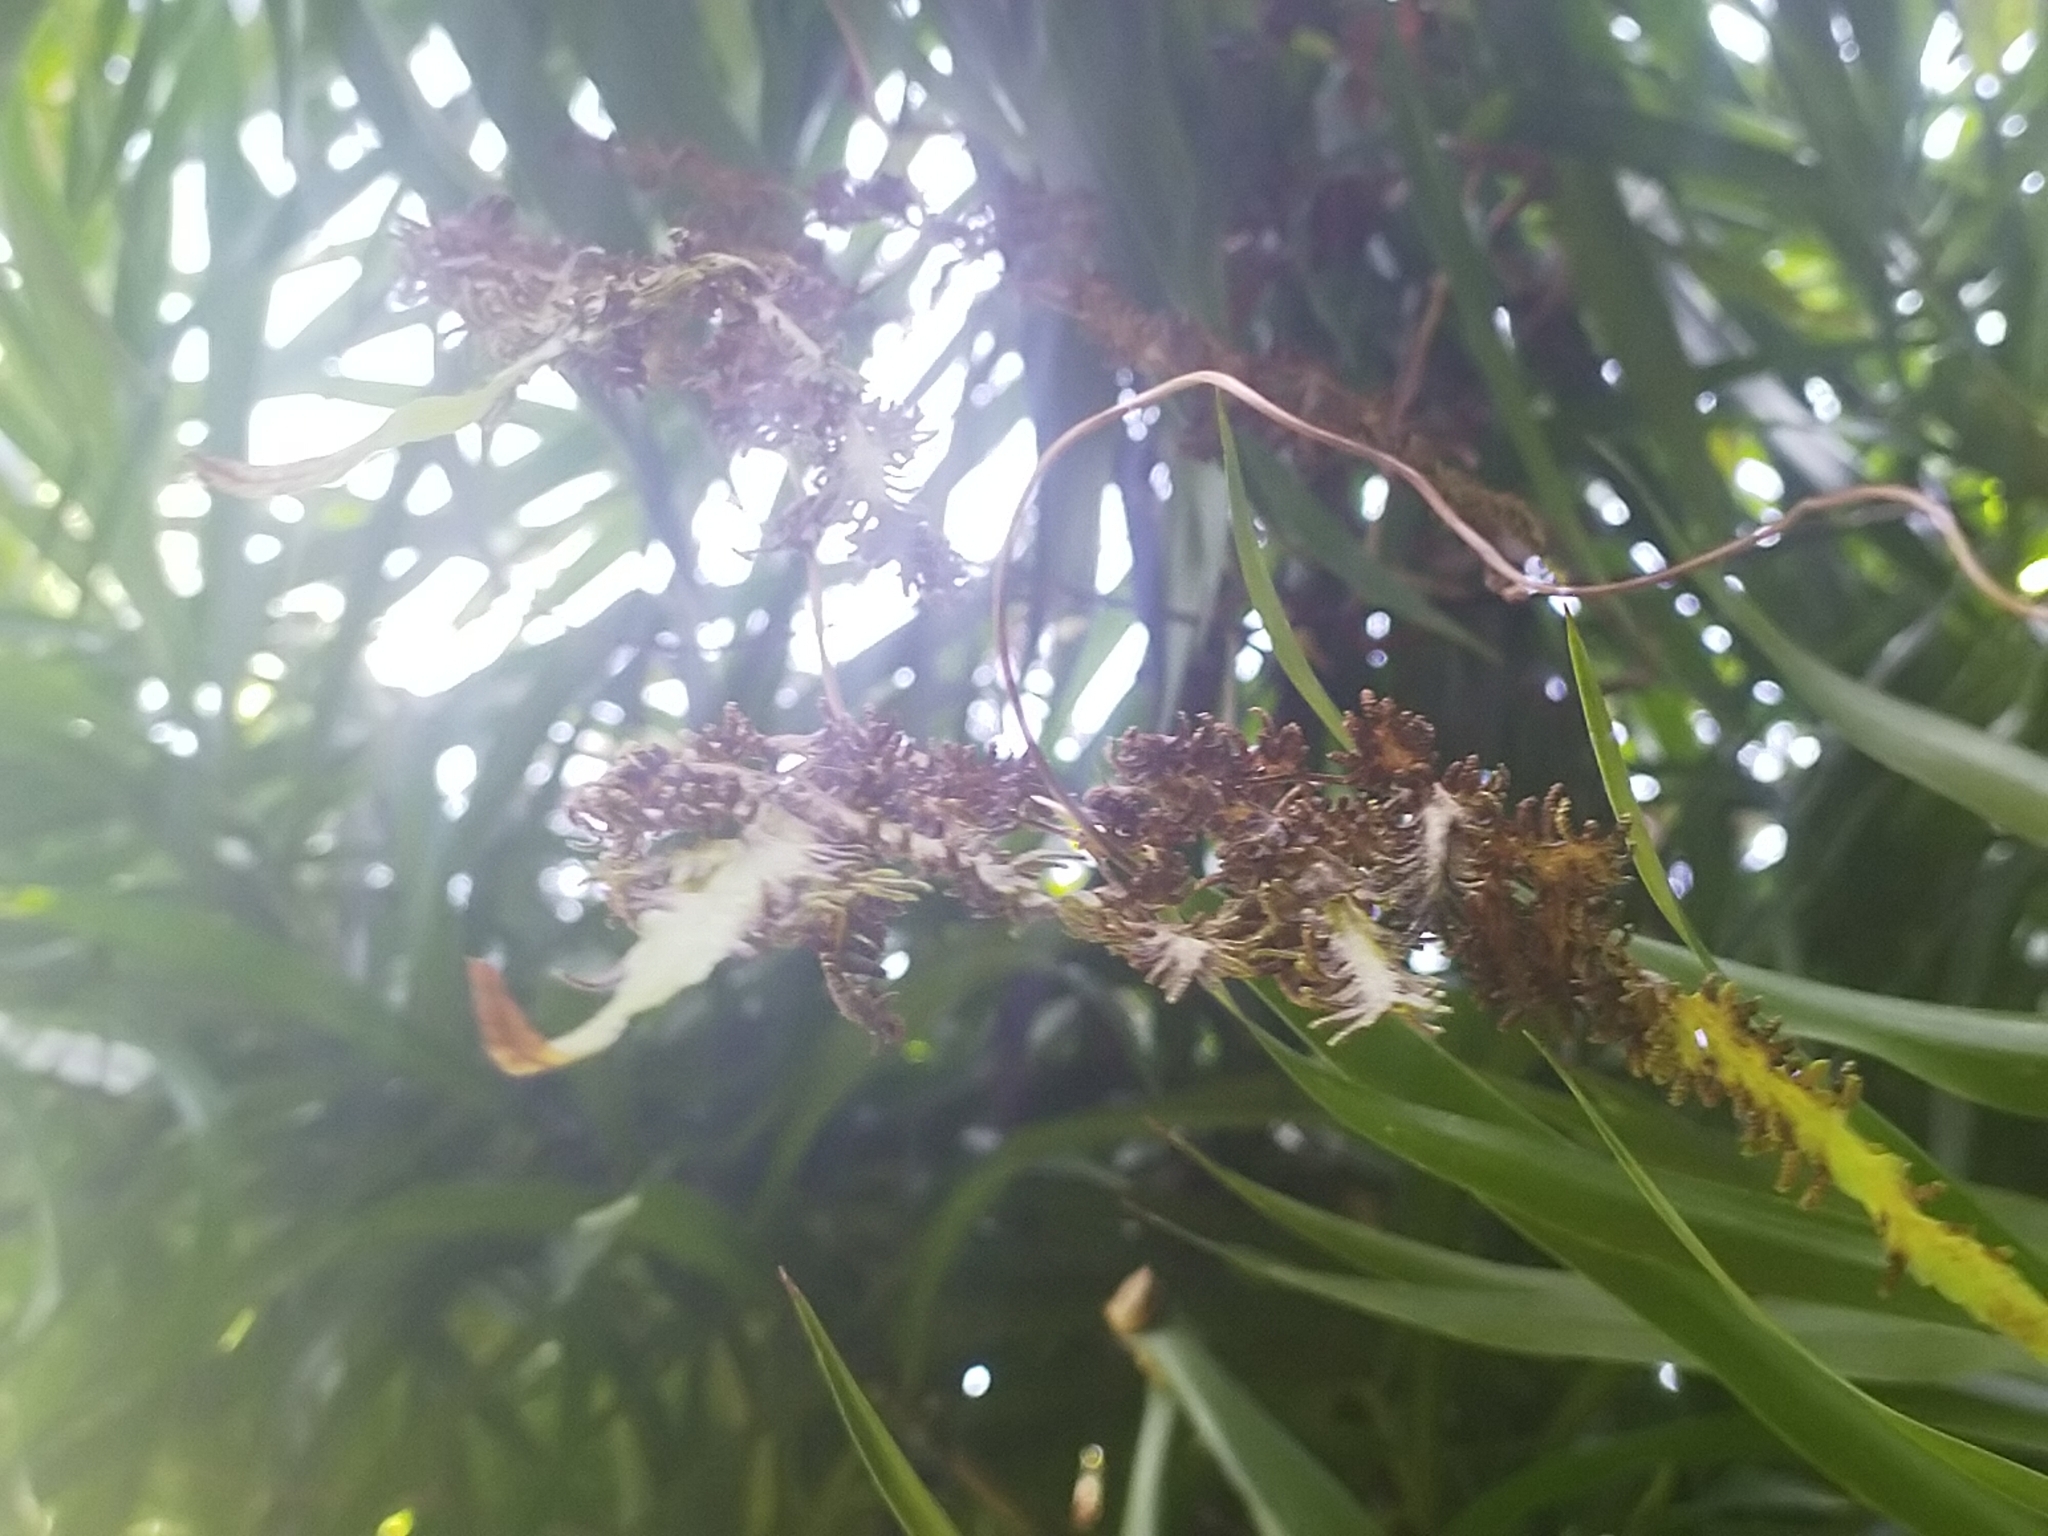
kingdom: Plantae
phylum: Tracheophyta
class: Polypodiopsida
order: Schizaeales
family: Lygodiaceae
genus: Lygodium
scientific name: Lygodium japonicum
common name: Japanese climbing fern
